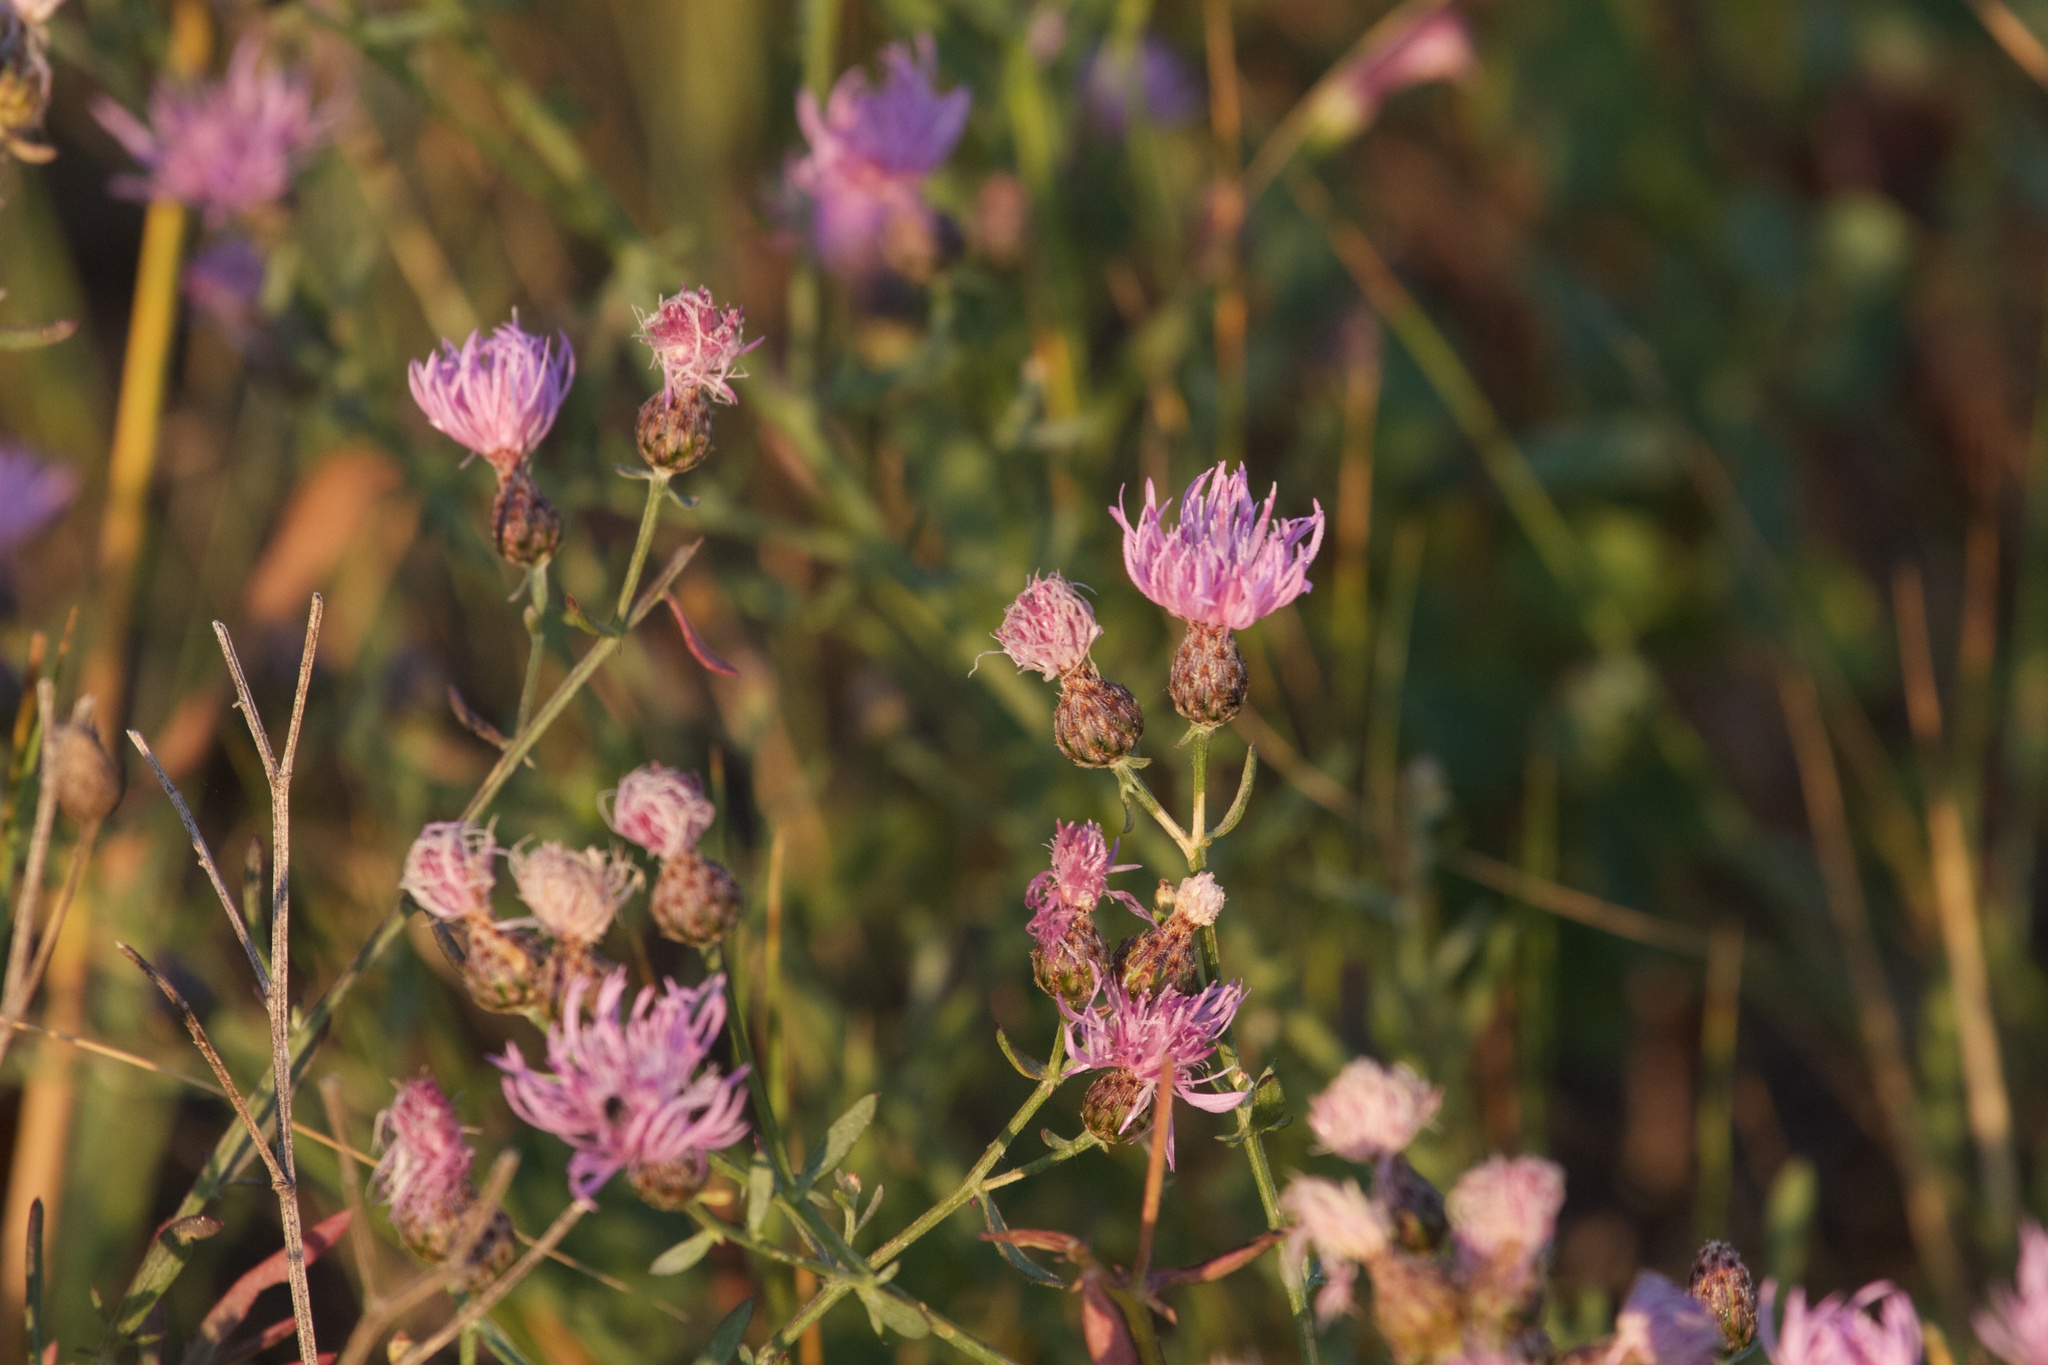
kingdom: Plantae
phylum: Tracheophyta
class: Magnoliopsida
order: Asterales
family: Asteraceae
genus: Cirsium
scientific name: Cirsium arvense
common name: Creeping thistle
